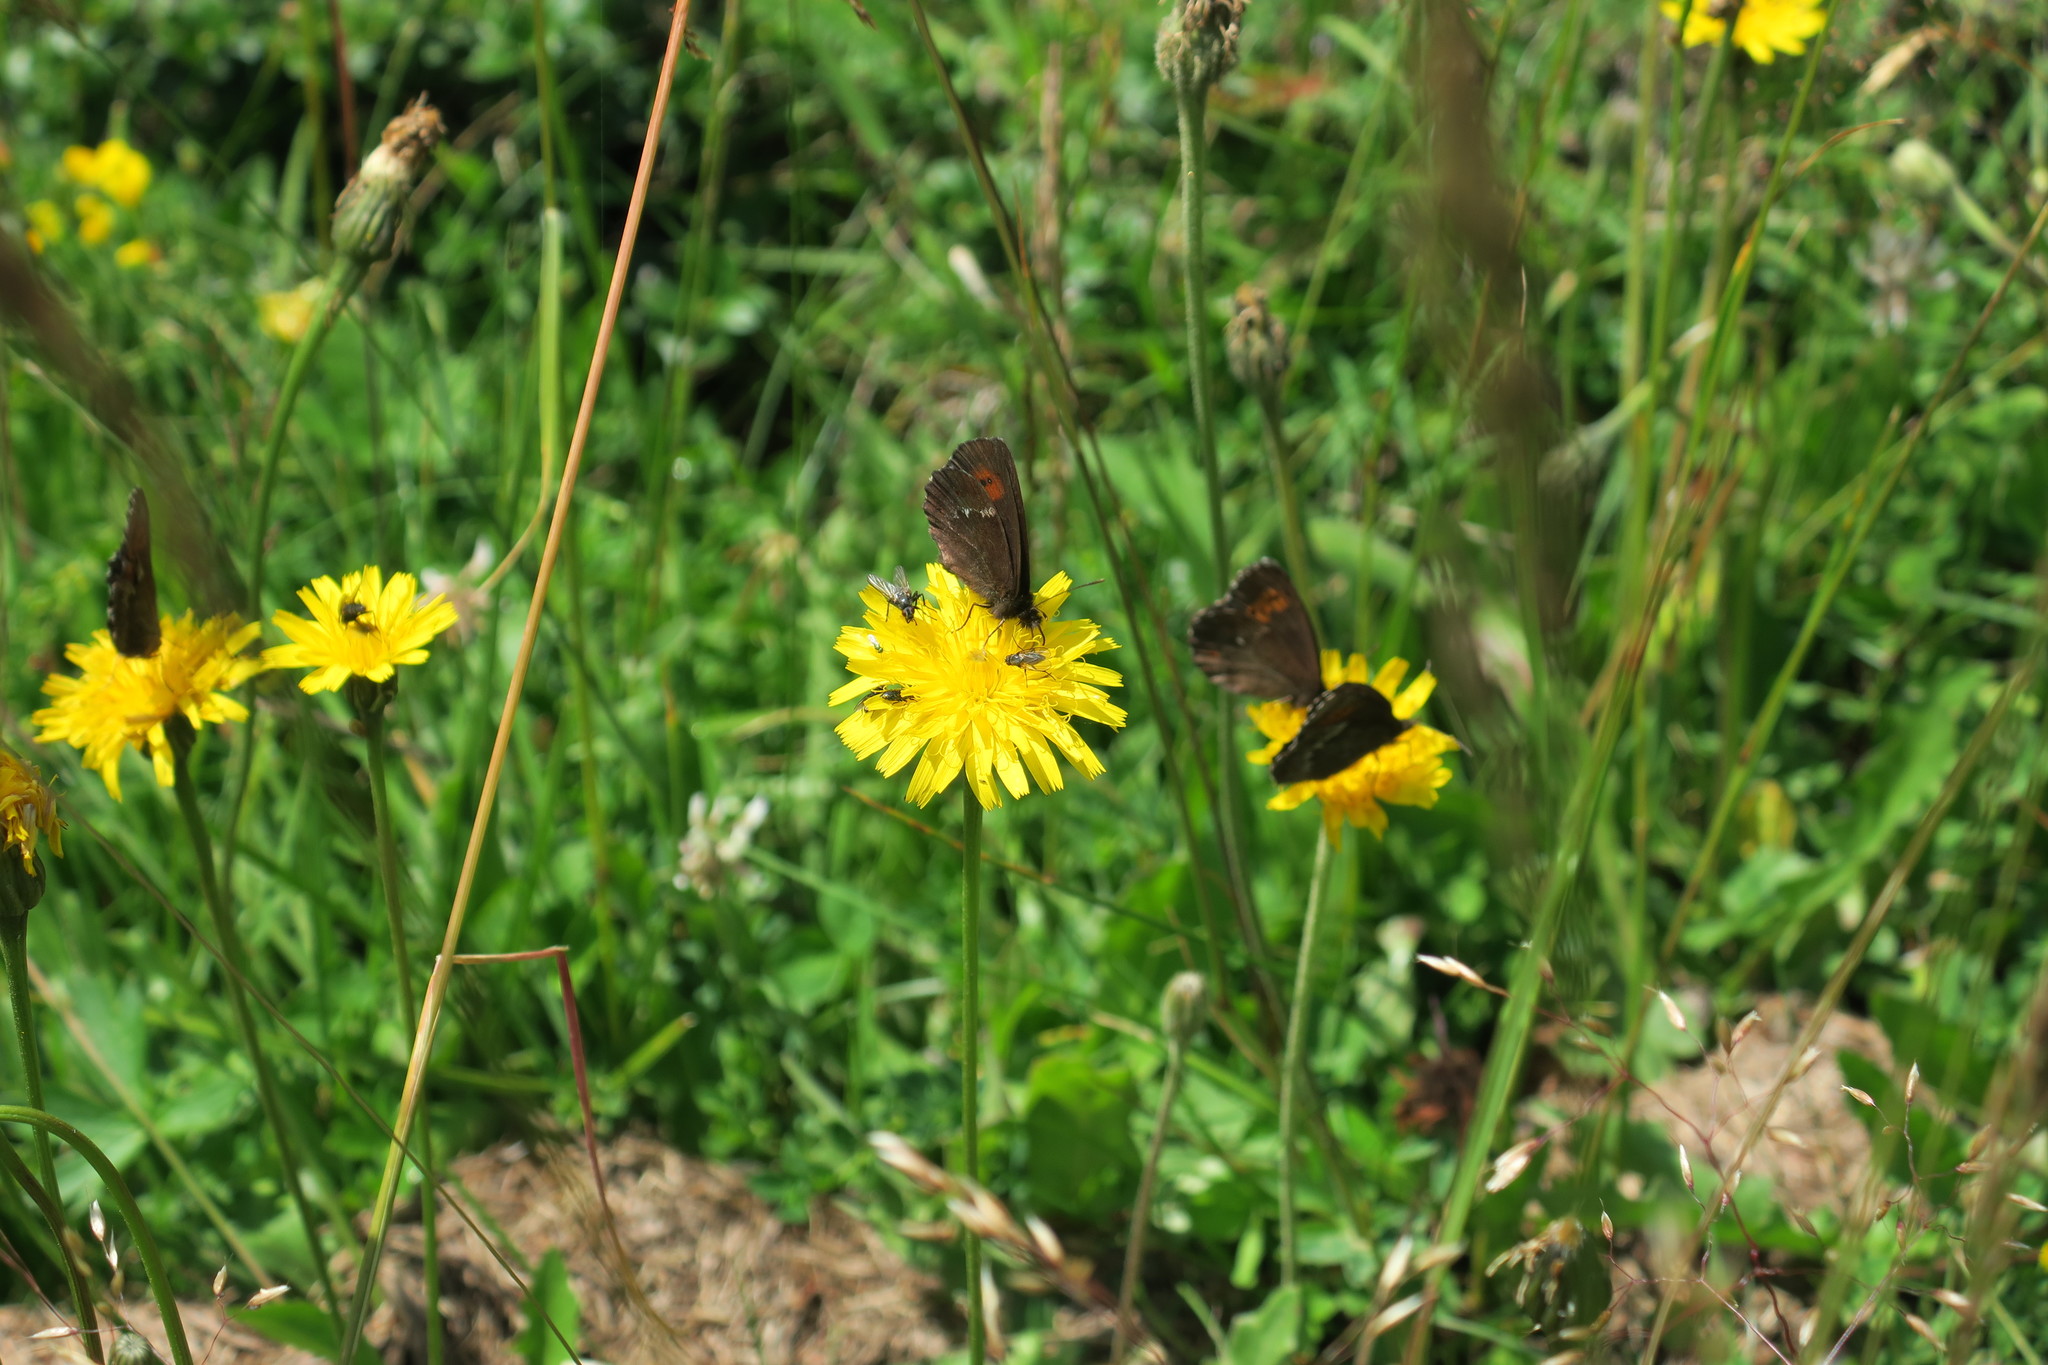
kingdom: Animalia
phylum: Arthropoda
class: Insecta
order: Lepidoptera
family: Nymphalidae
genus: Erebia
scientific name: Erebia euryale
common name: Large ringlet
